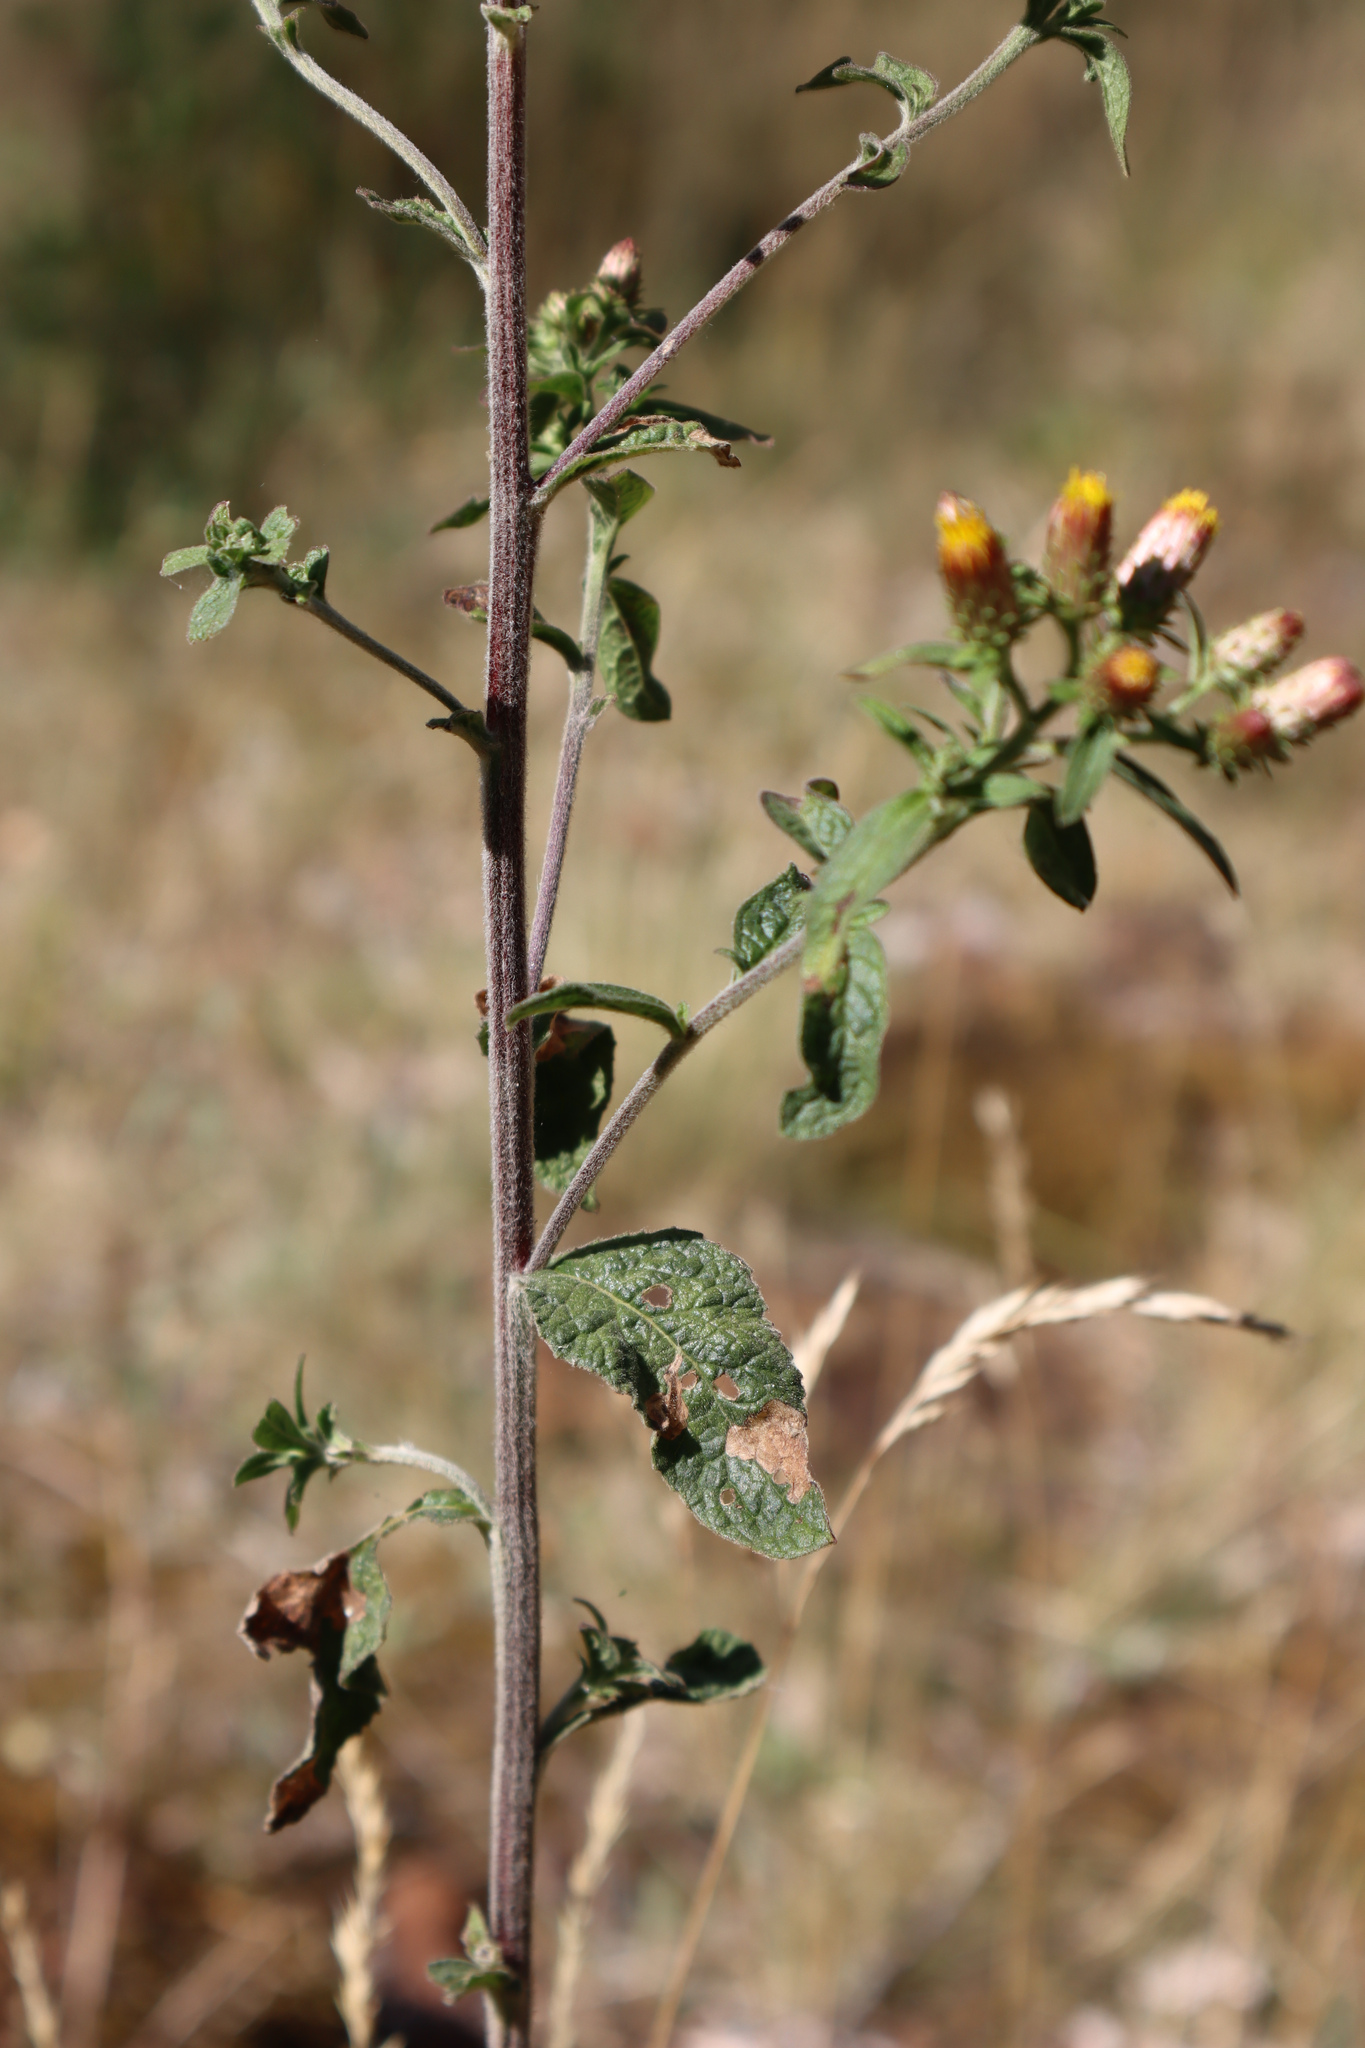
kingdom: Plantae
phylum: Tracheophyta
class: Magnoliopsida
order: Asterales
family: Asteraceae
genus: Pentanema
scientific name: Pentanema squarrosum
